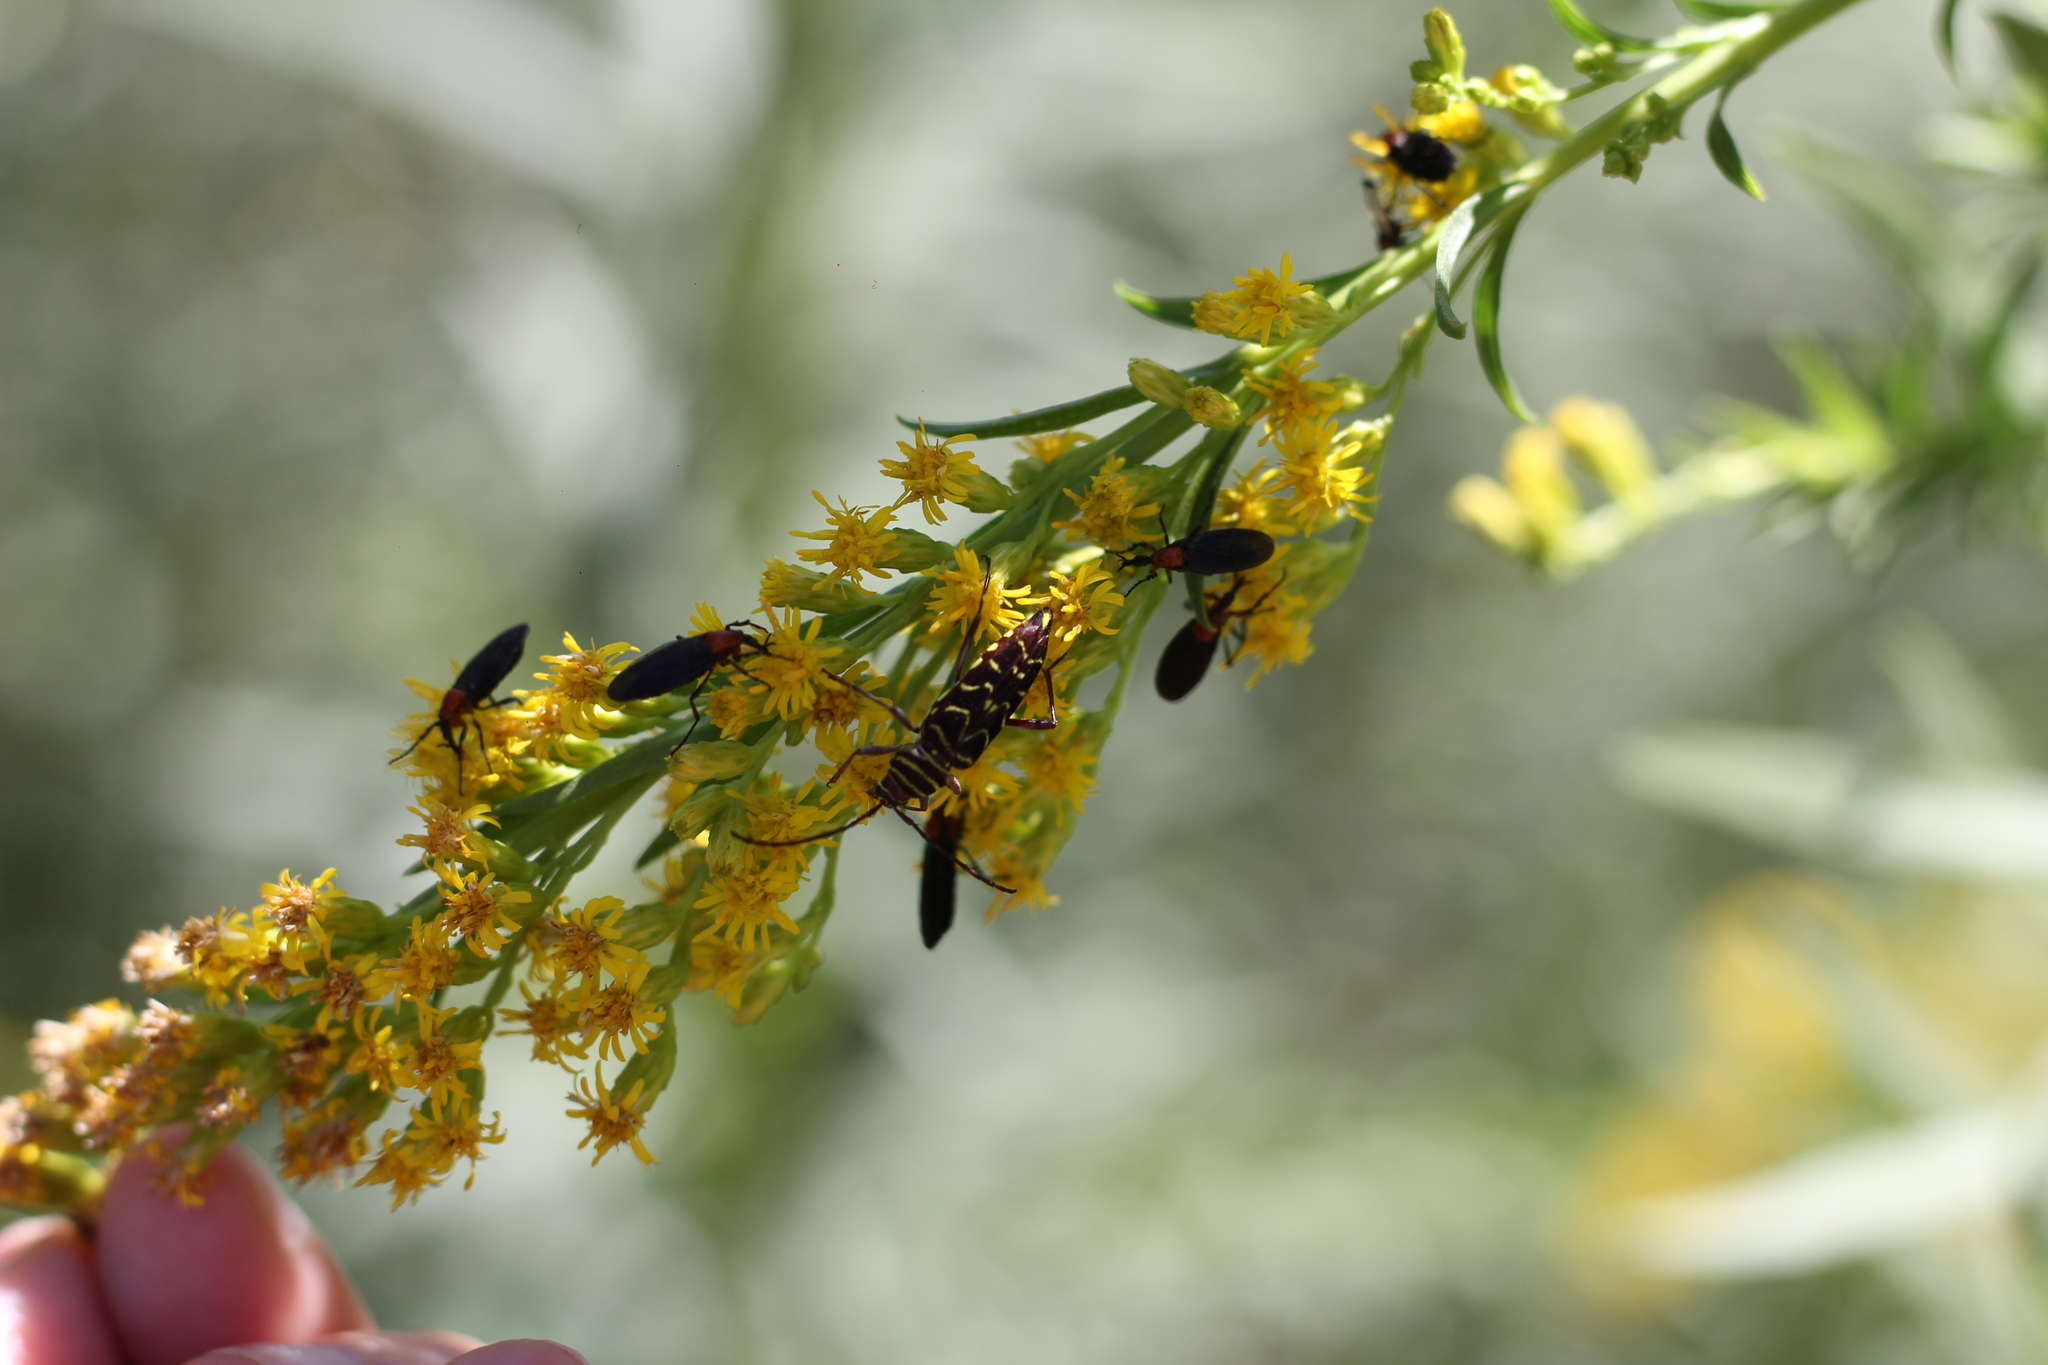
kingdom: Animalia
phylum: Arthropoda
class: Insecta
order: Coleoptera
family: Cerambycidae
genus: Megacyllene
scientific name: Megacyllene acuta
